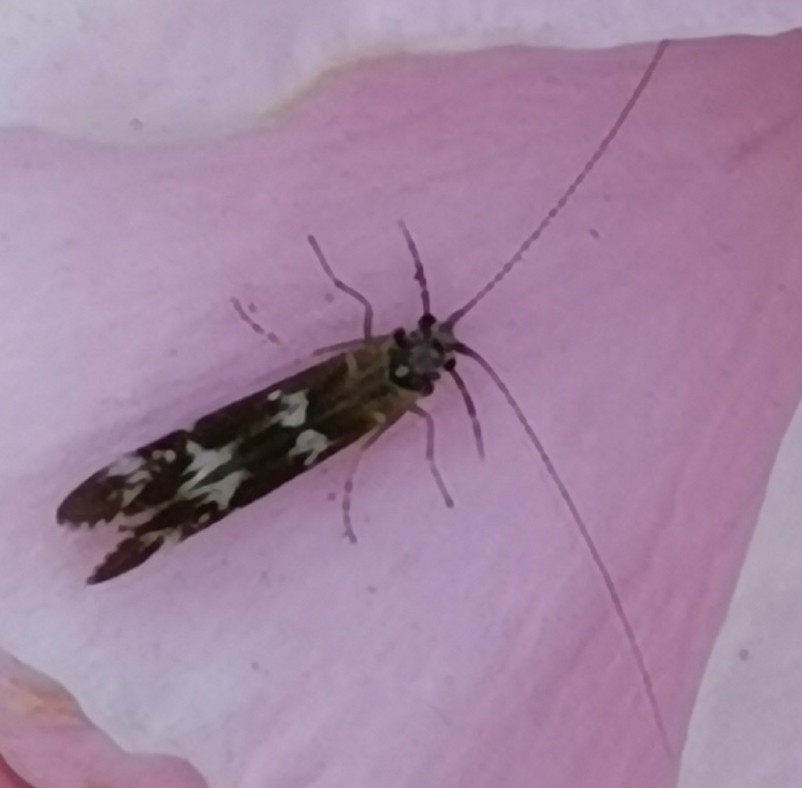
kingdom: Animalia
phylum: Arthropoda
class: Insecta
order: Trichoptera
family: Leptoceridae
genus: Athripsodes
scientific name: Athripsodes cinereus
